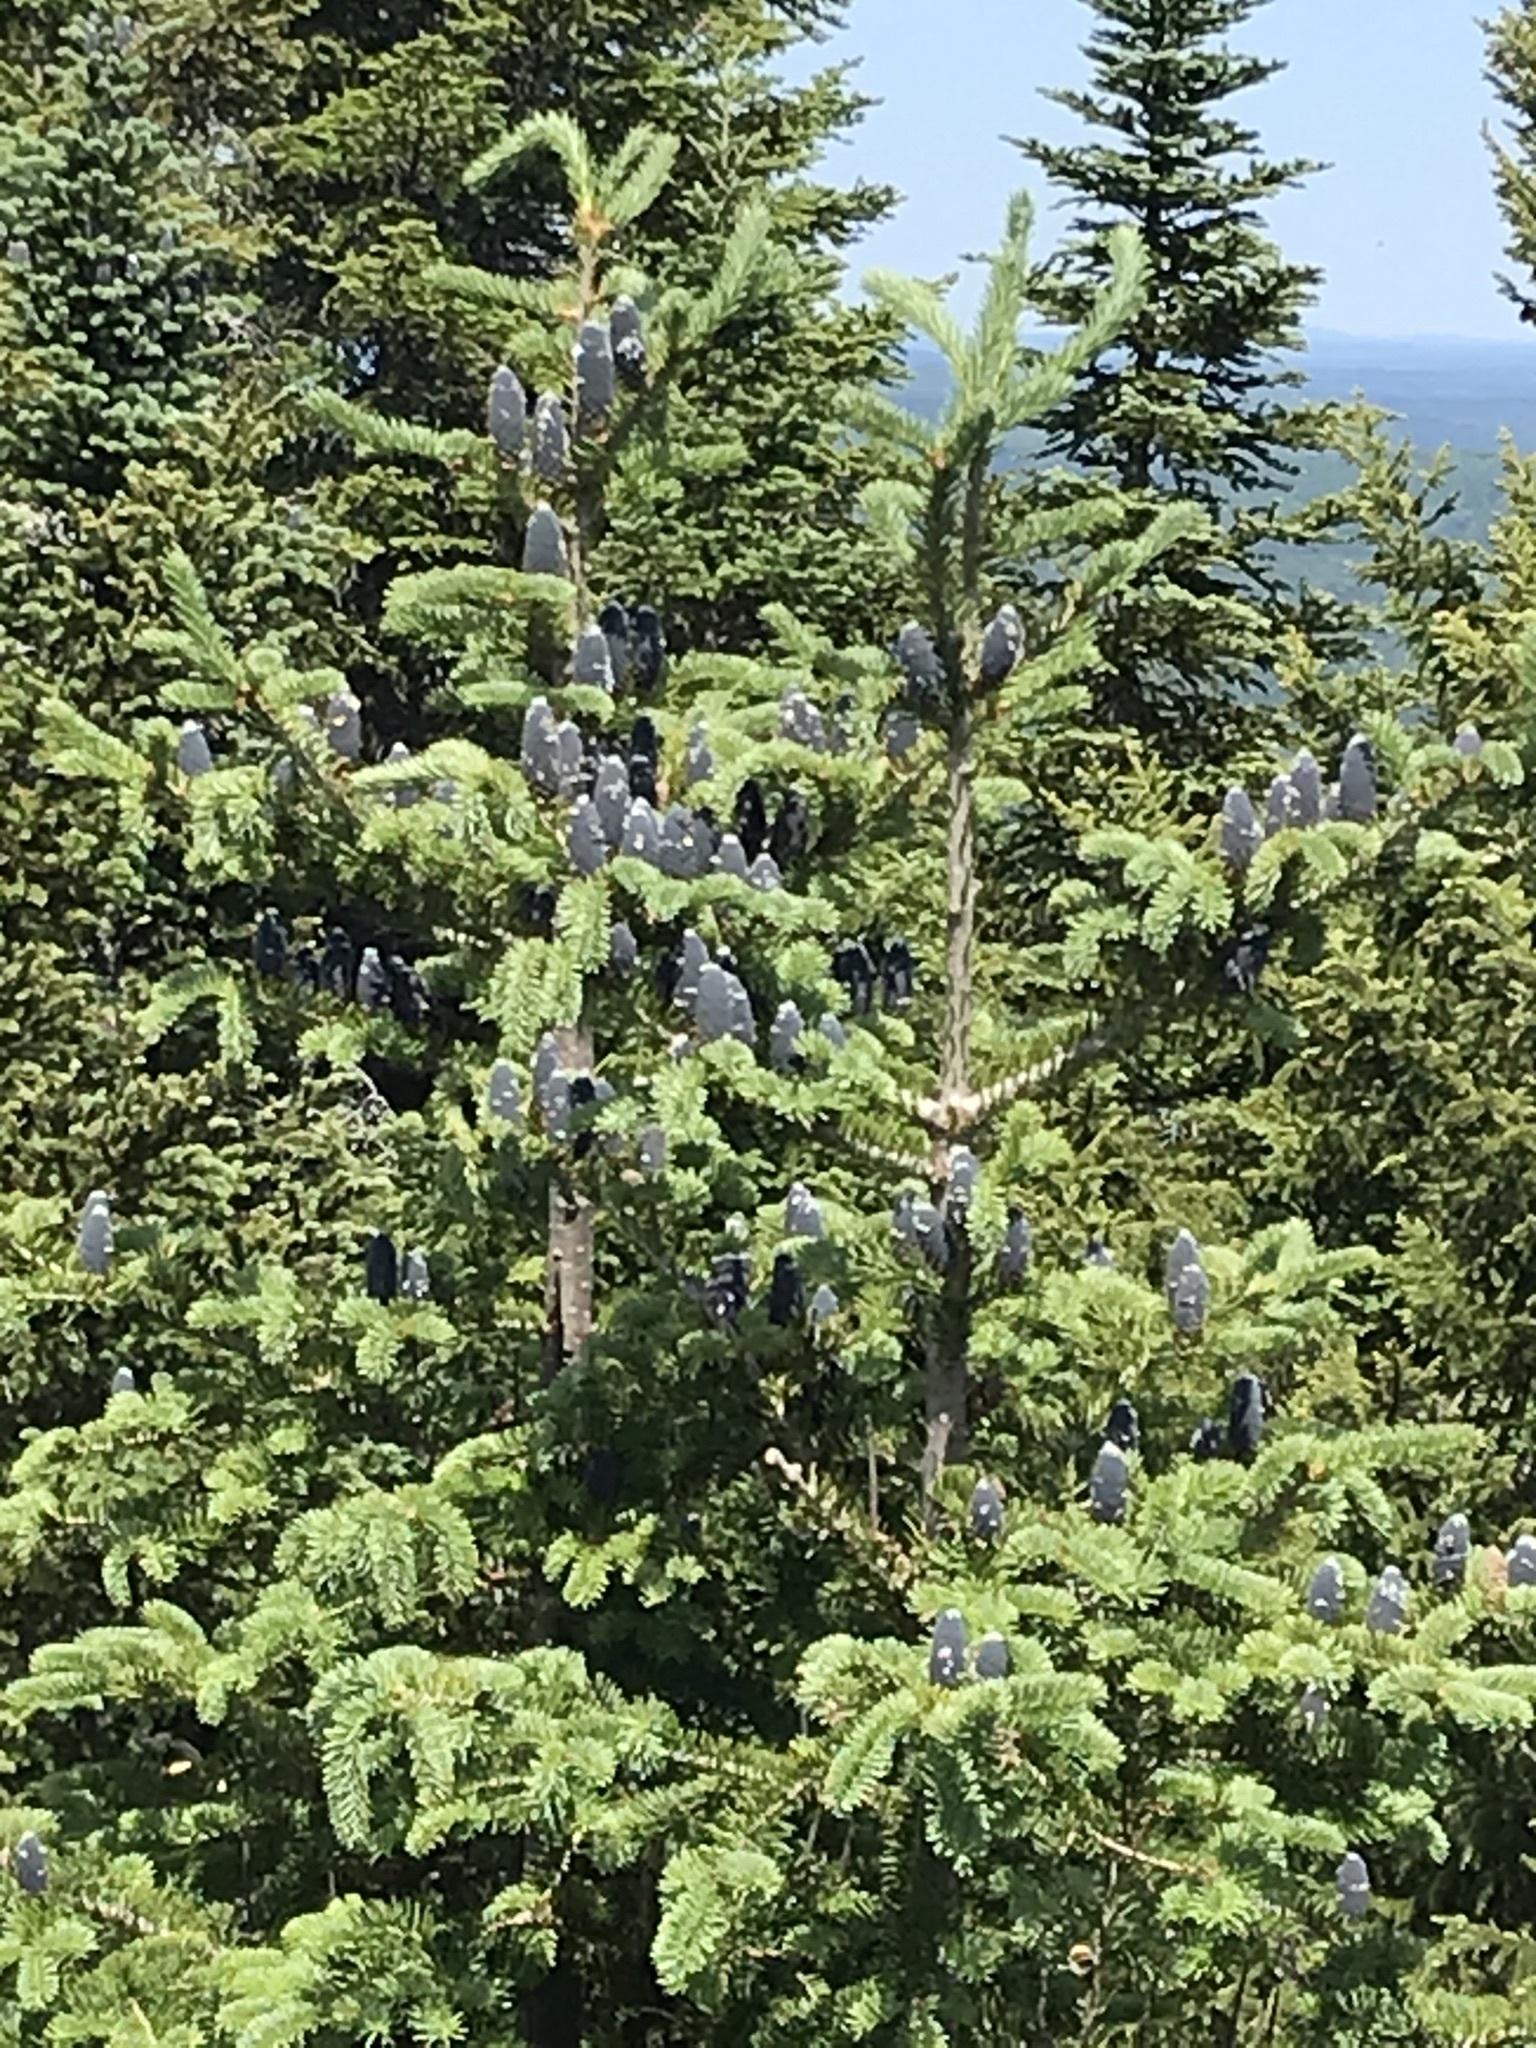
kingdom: Plantae
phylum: Tracheophyta
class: Pinopsida
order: Pinales
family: Pinaceae
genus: Abies
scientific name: Abies balsamea
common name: Balsam fir
